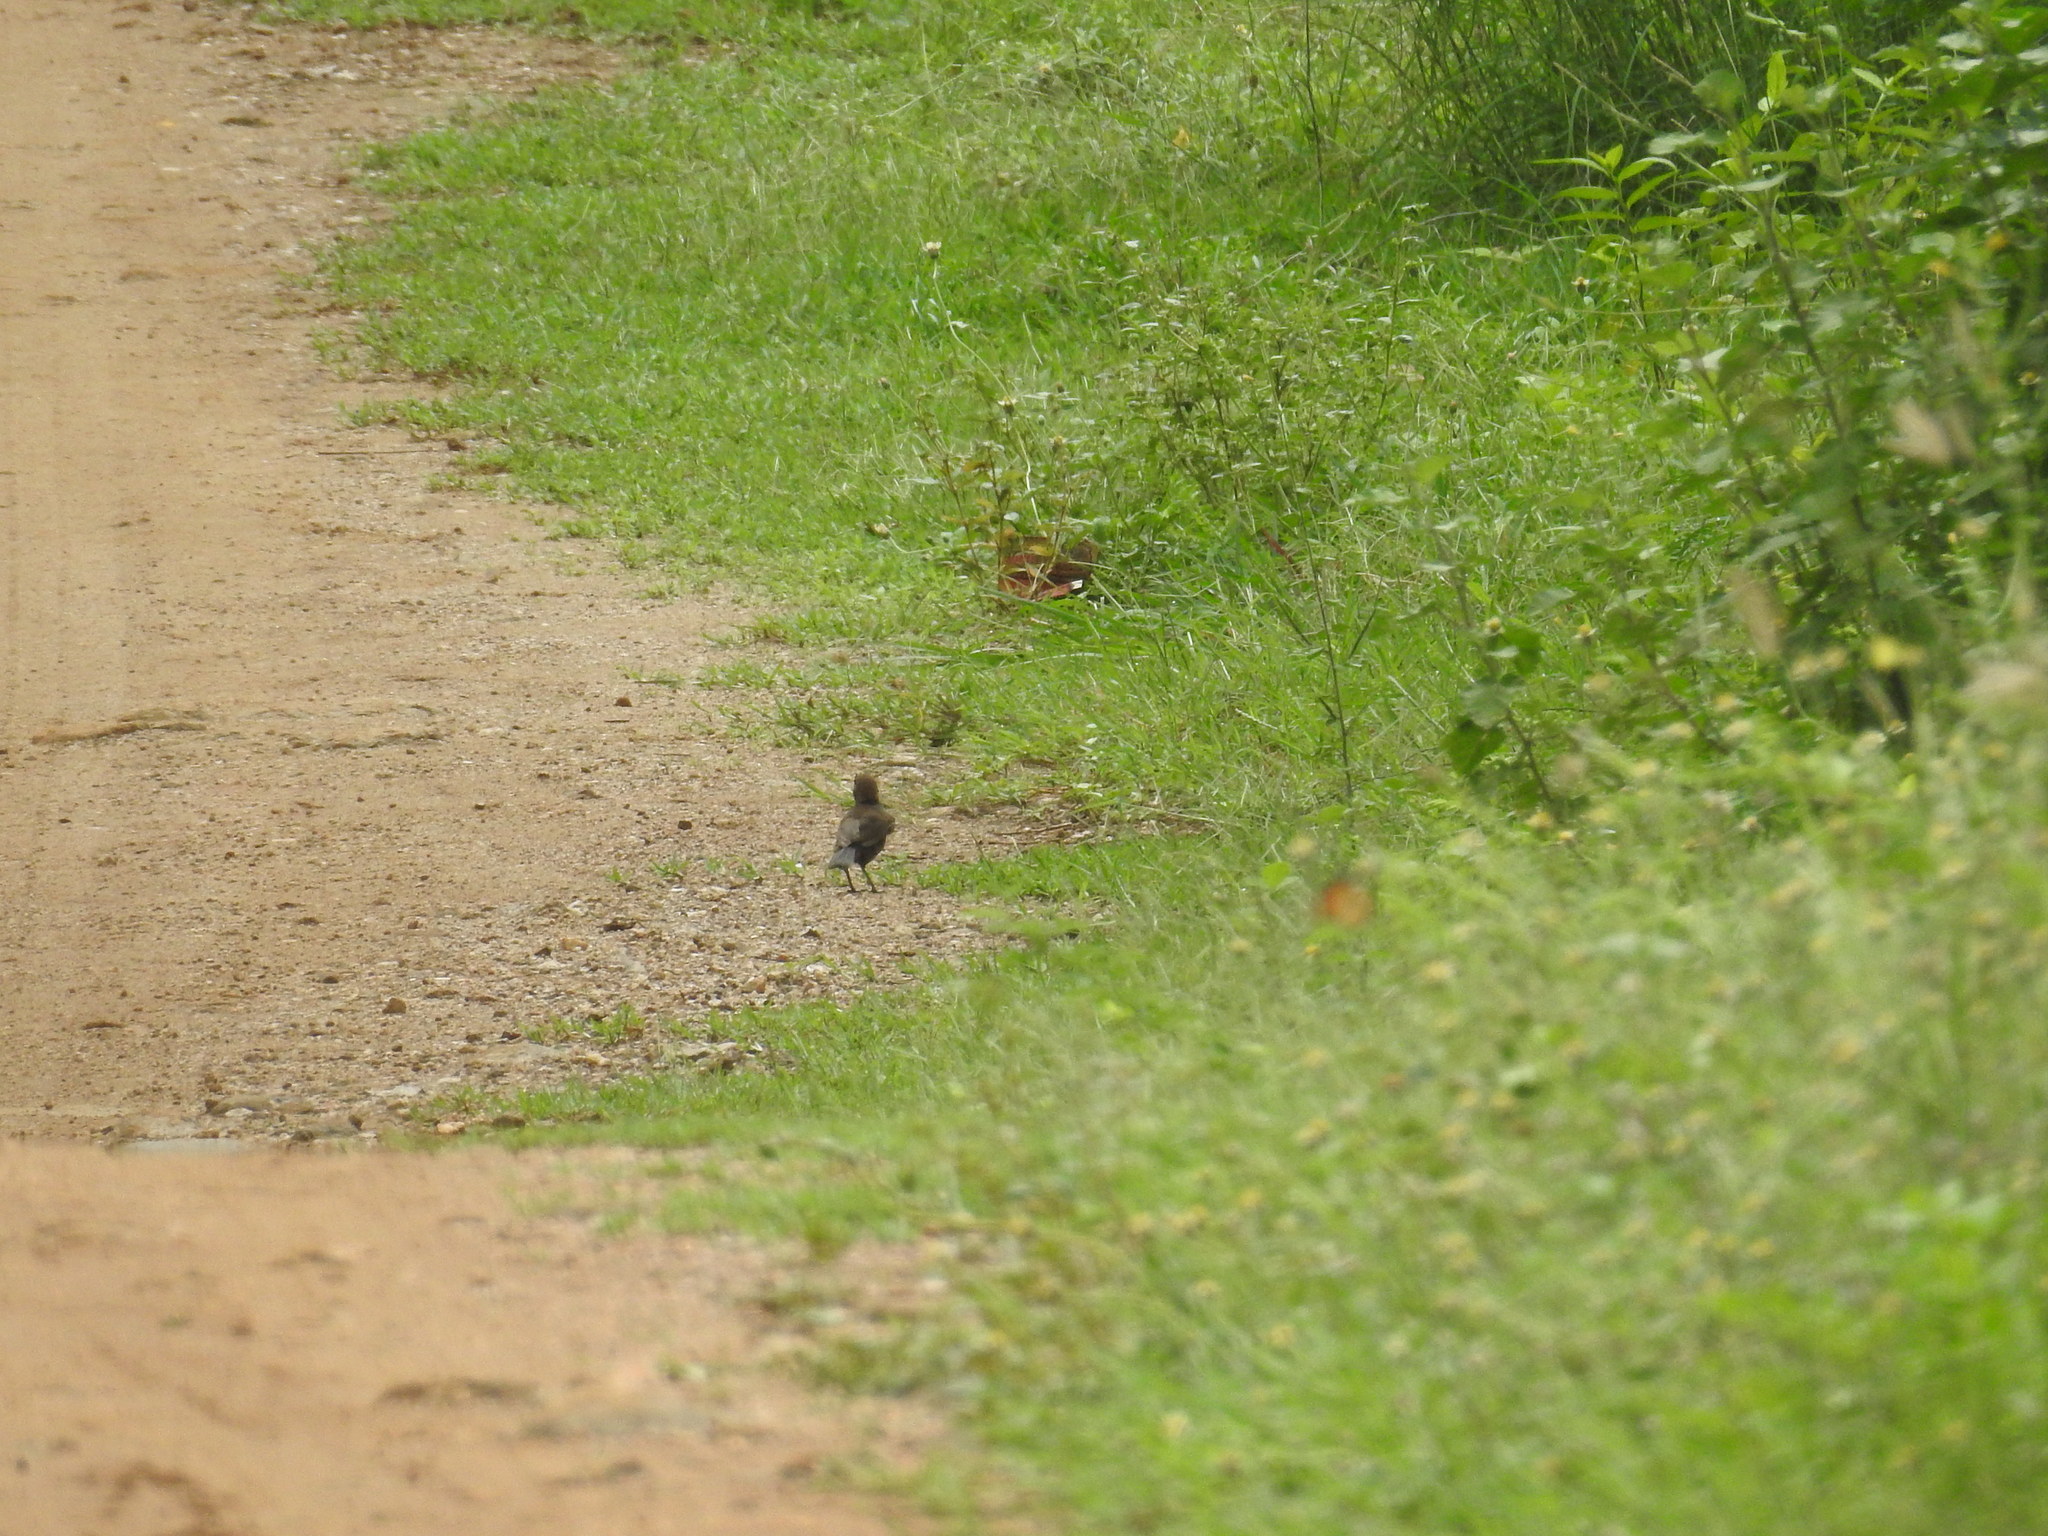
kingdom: Animalia
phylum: Chordata
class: Aves
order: Passeriformes
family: Muscicapidae
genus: Saxicoloides
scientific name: Saxicoloides fulicatus
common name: Indian robin
